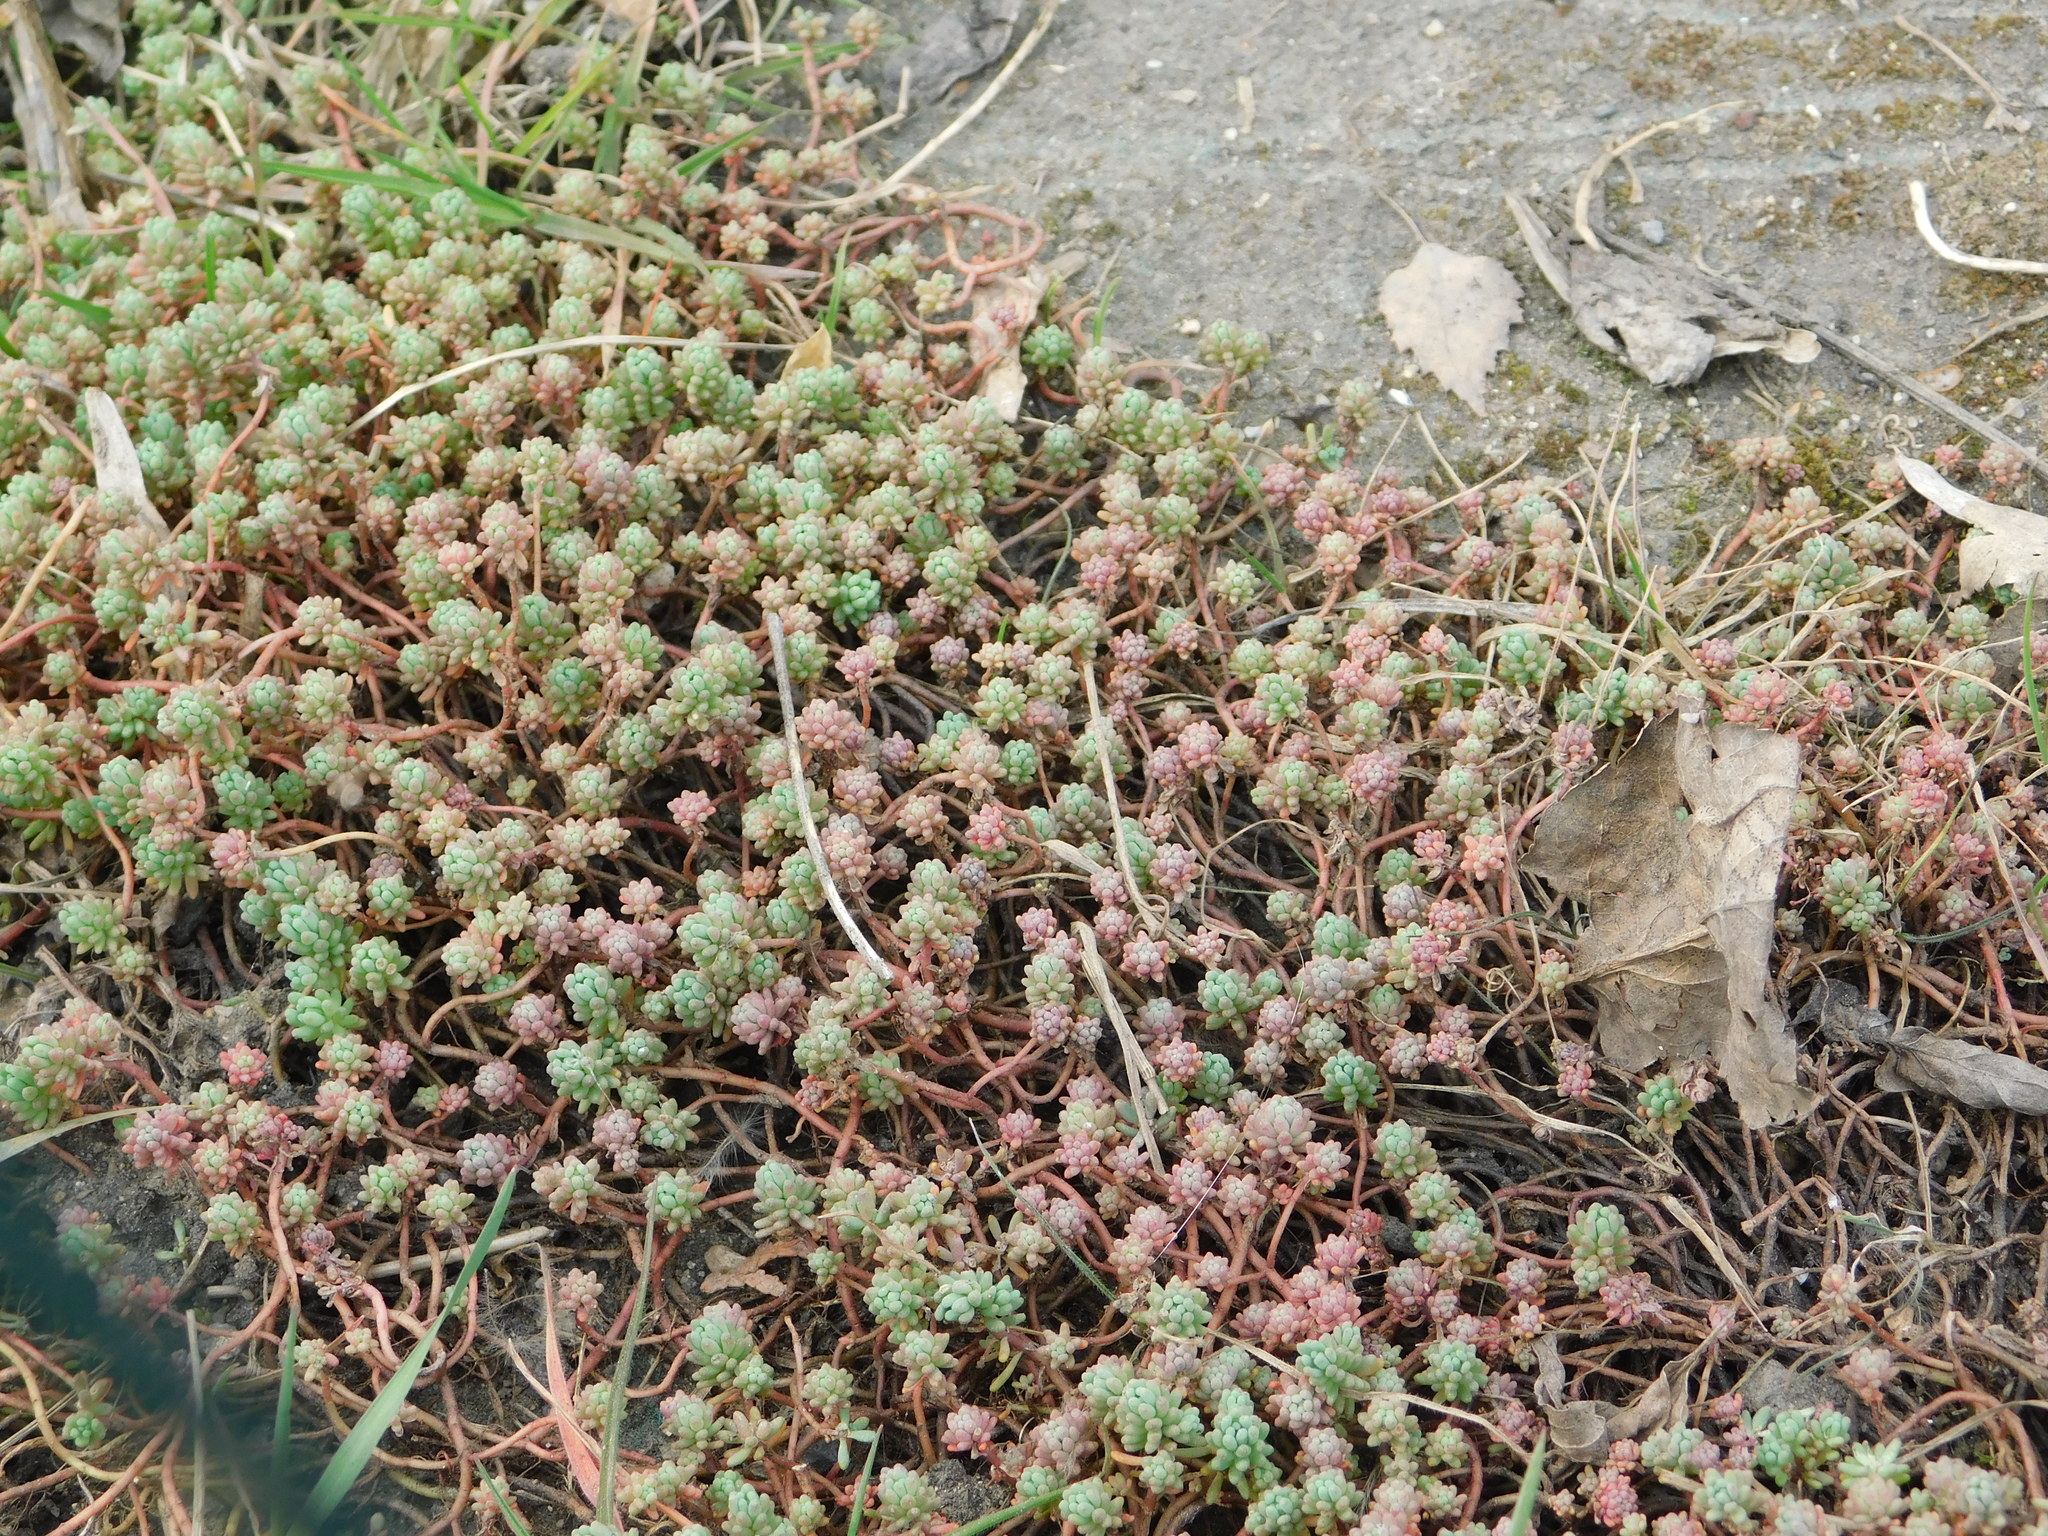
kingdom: Plantae
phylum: Tracheophyta
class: Magnoliopsida
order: Saxifragales
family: Crassulaceae
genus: Sedum
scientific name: Sedum pallidum
